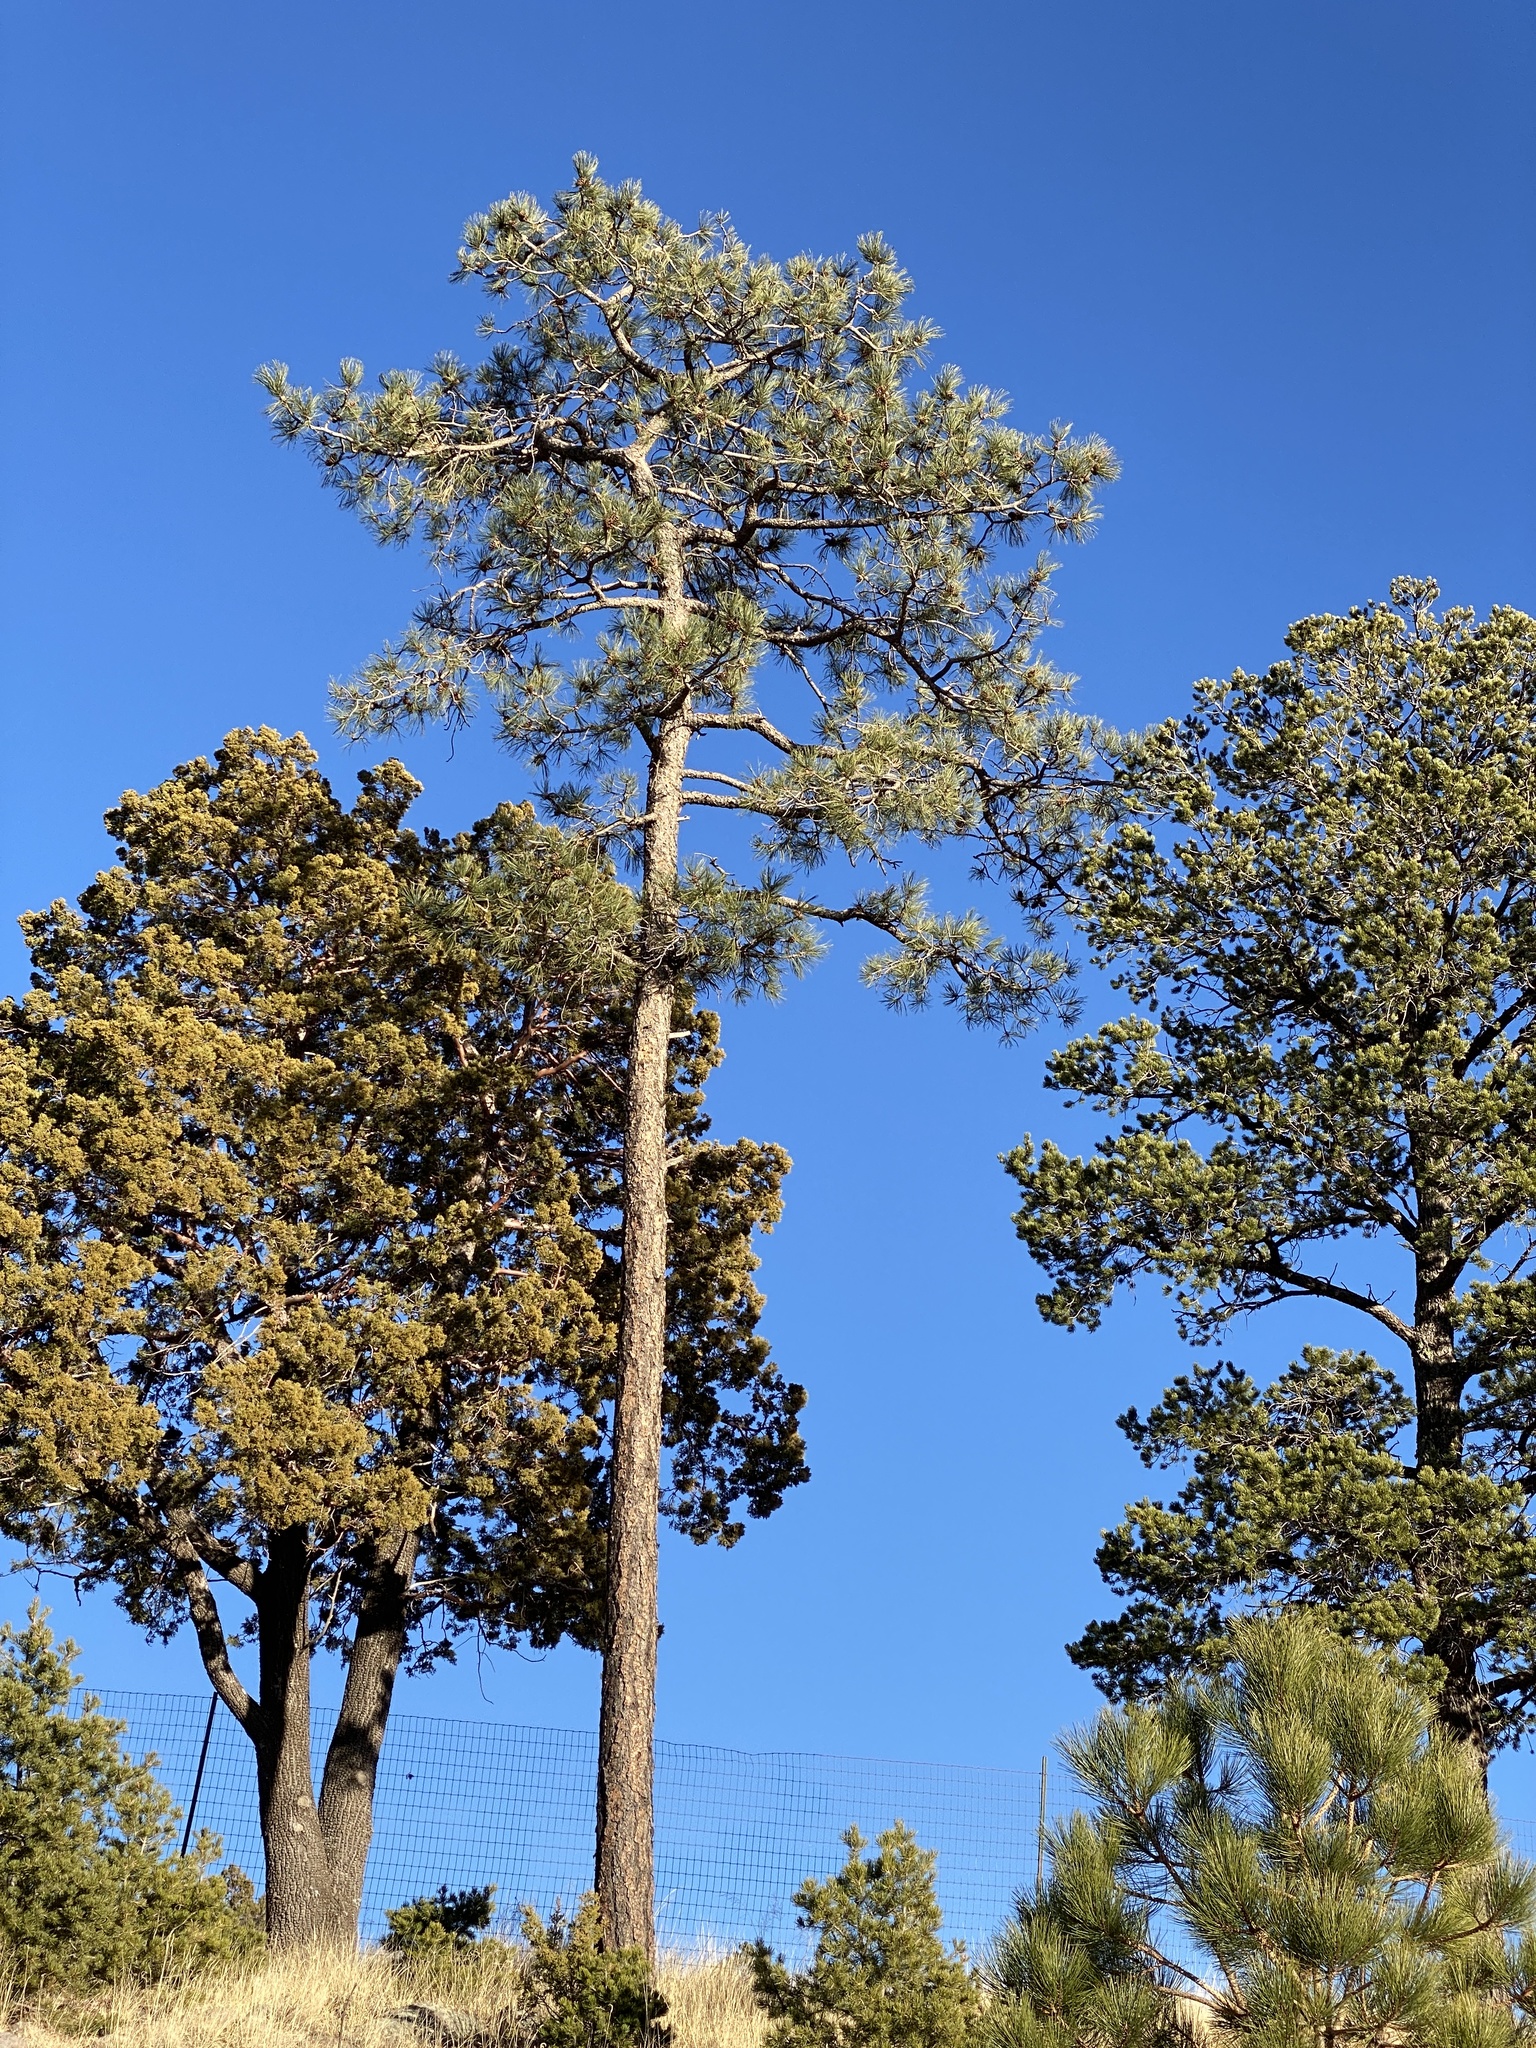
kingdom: Plantae
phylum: Tracheophyta
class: Pinopsida
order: Pinales
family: Pinaceae
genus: Pinus
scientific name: Pinus ponderosa
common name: Western yellow-pine
